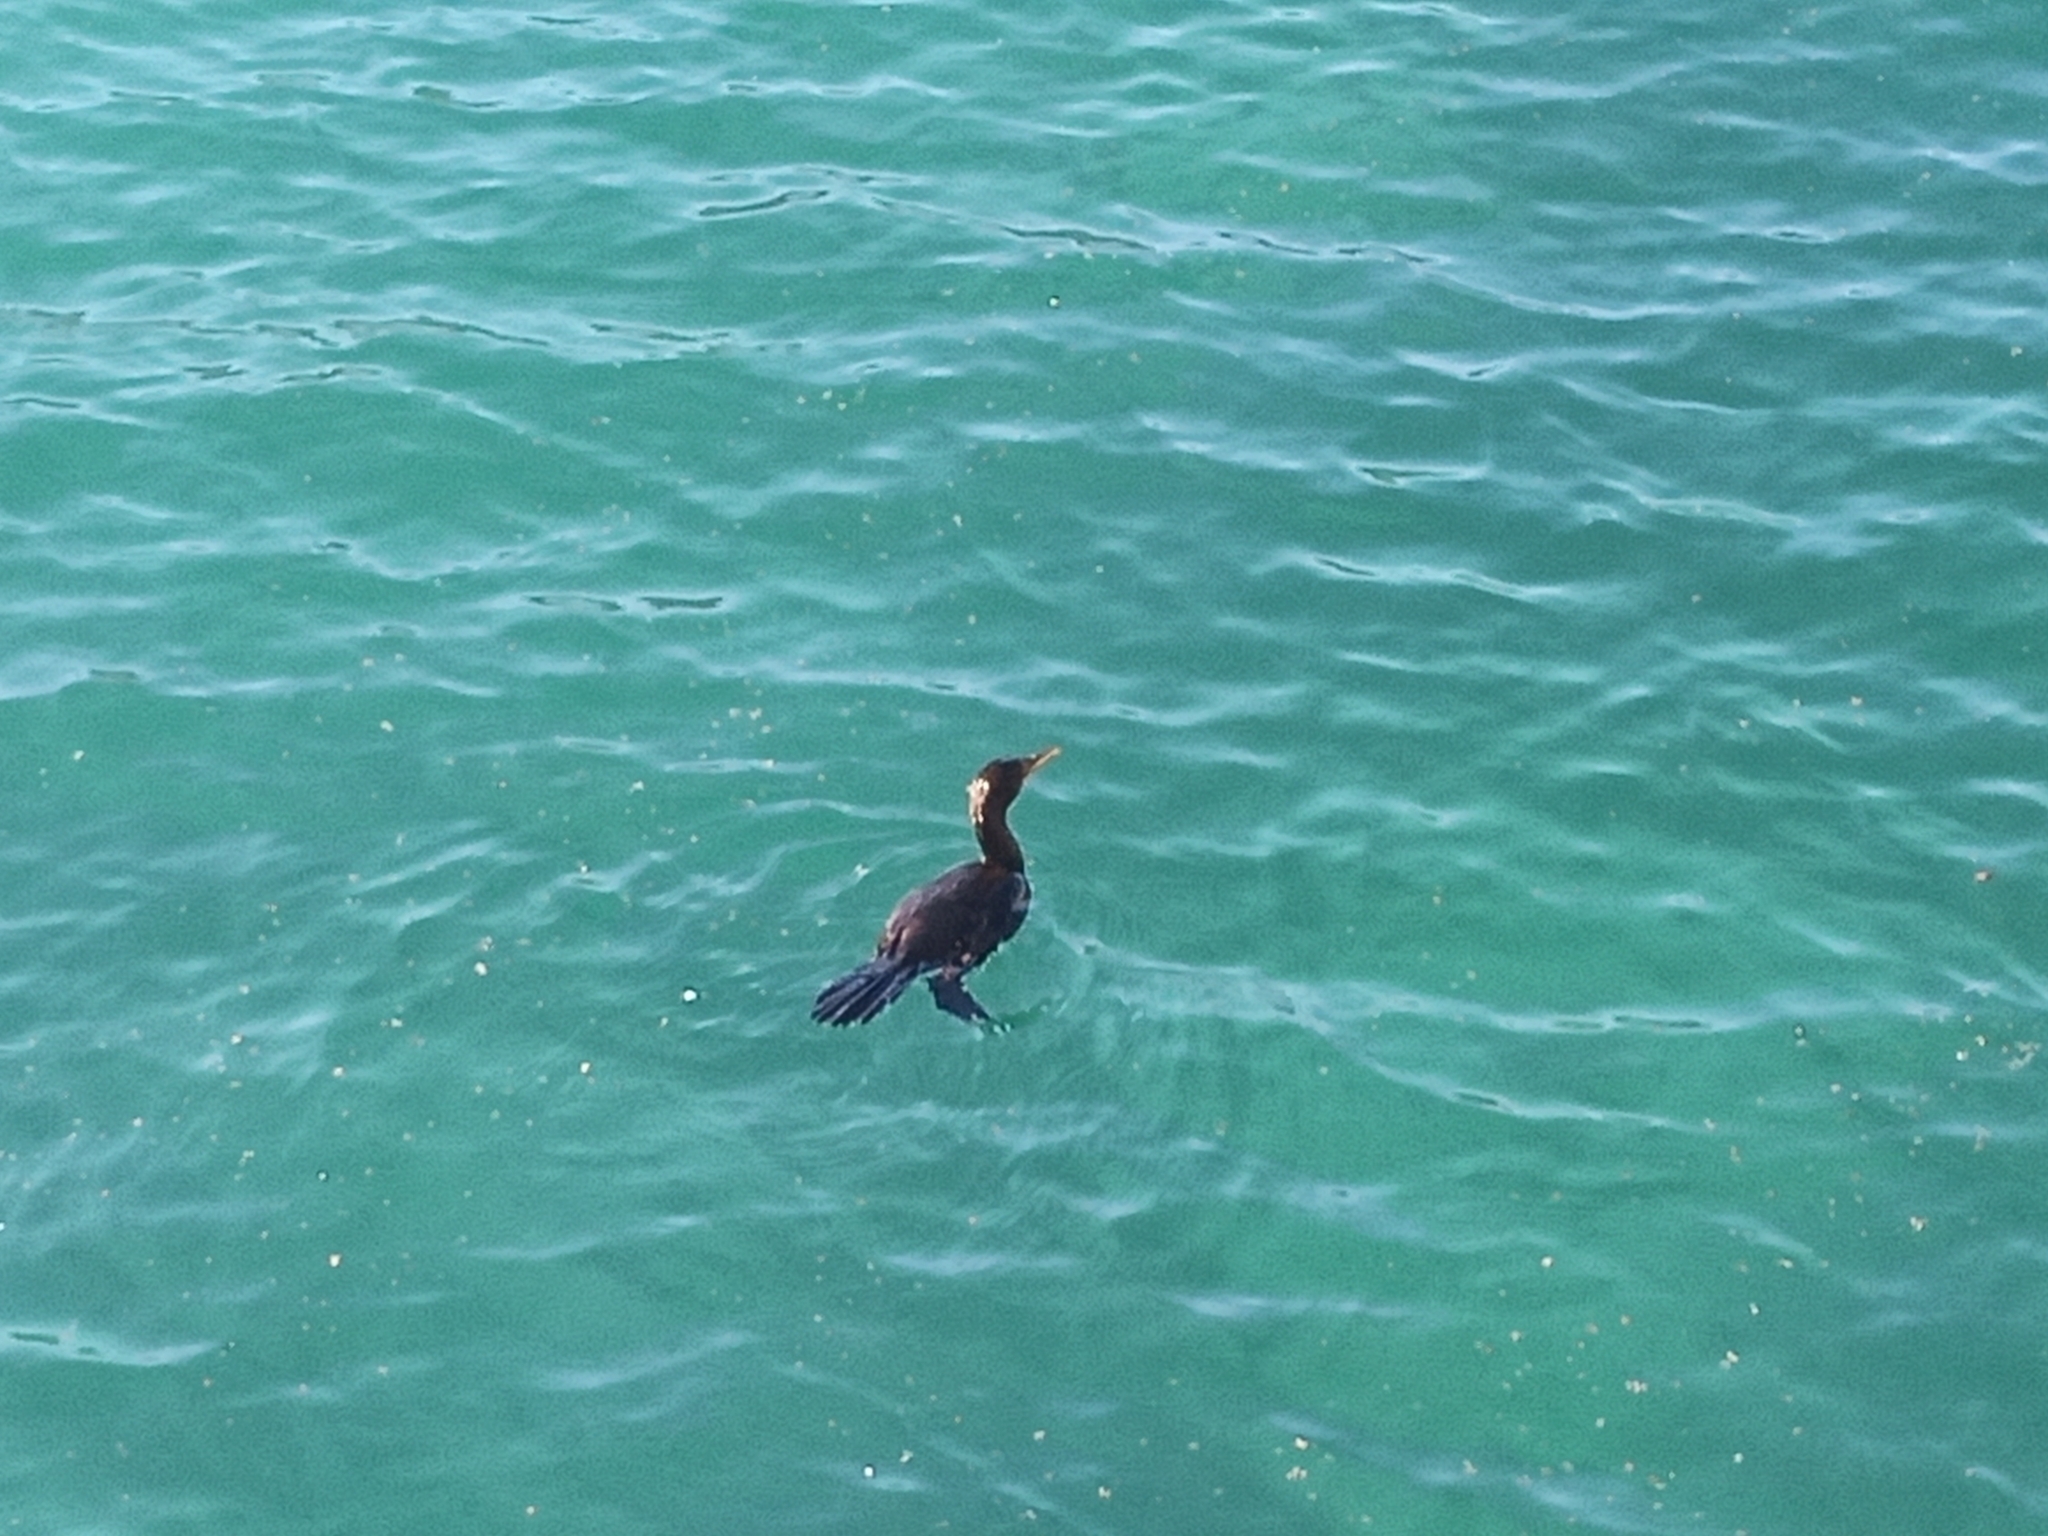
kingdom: Animalia
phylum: Chordata
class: Aves
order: Suliformes
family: Phalacrocoracidae
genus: Microcarbo
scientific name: Microcarbo coronatus
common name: Crowned cormorant
